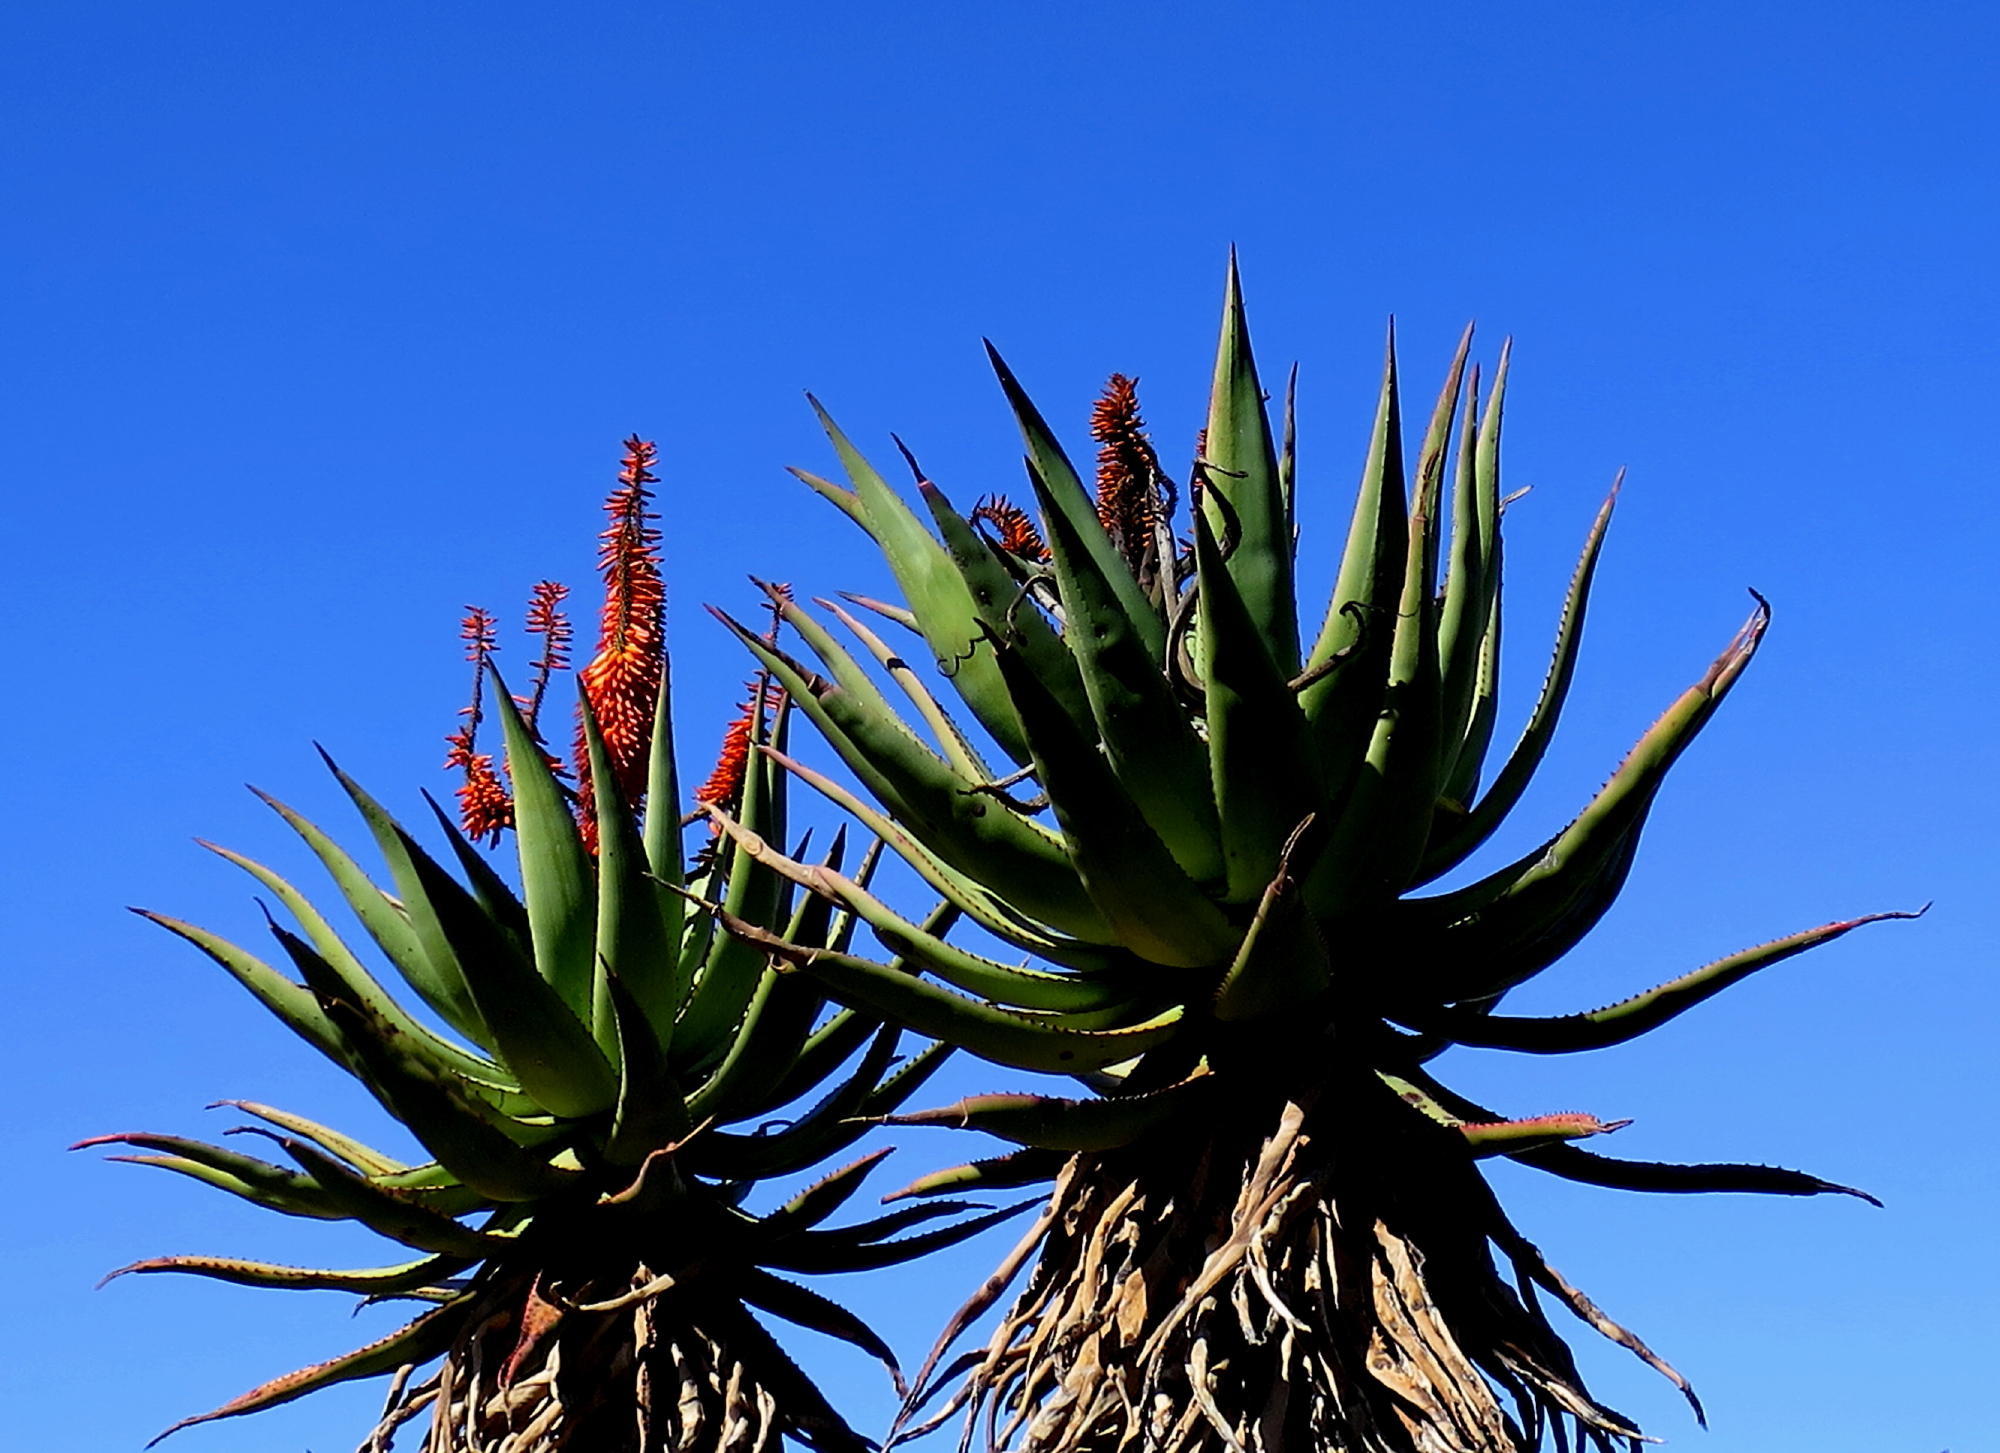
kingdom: Plantae
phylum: Tracheophyta
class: Liliopsida
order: Asparagales
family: Asphodelaceae
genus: Aloe
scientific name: Aloe ferox
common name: Bitter aloe
